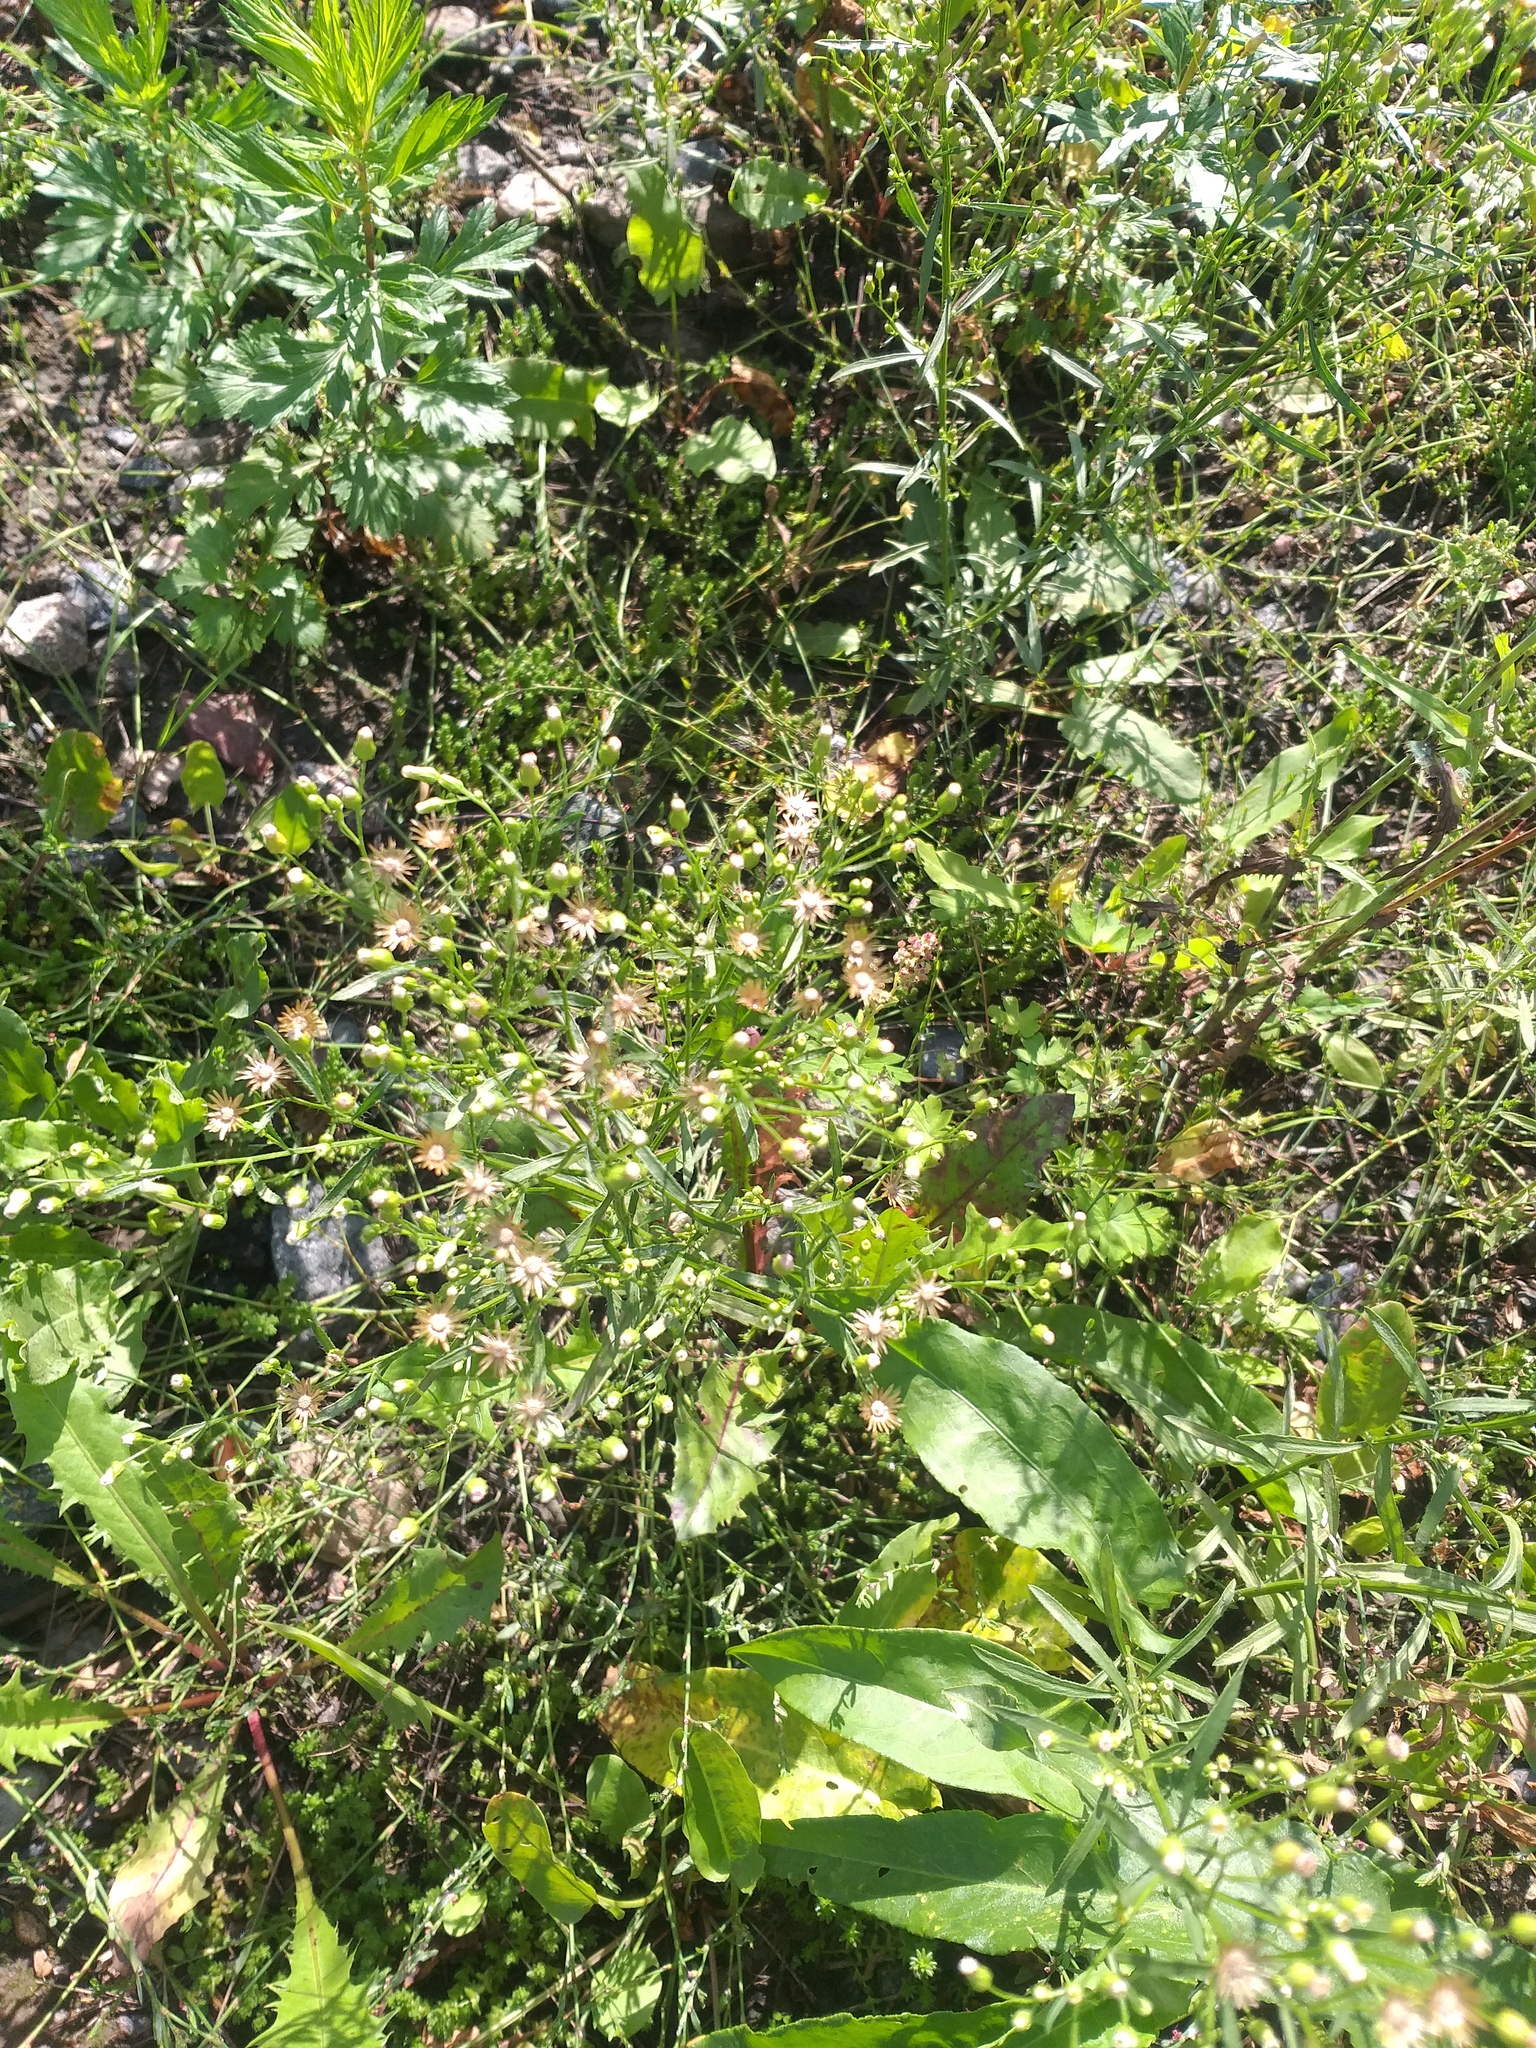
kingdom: Plantae
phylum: Tracheophyta
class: Magnoliopsida
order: Asterales
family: Asteraceae
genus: Erigeron
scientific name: Erigeron canadensis
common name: Canadian fleabane
